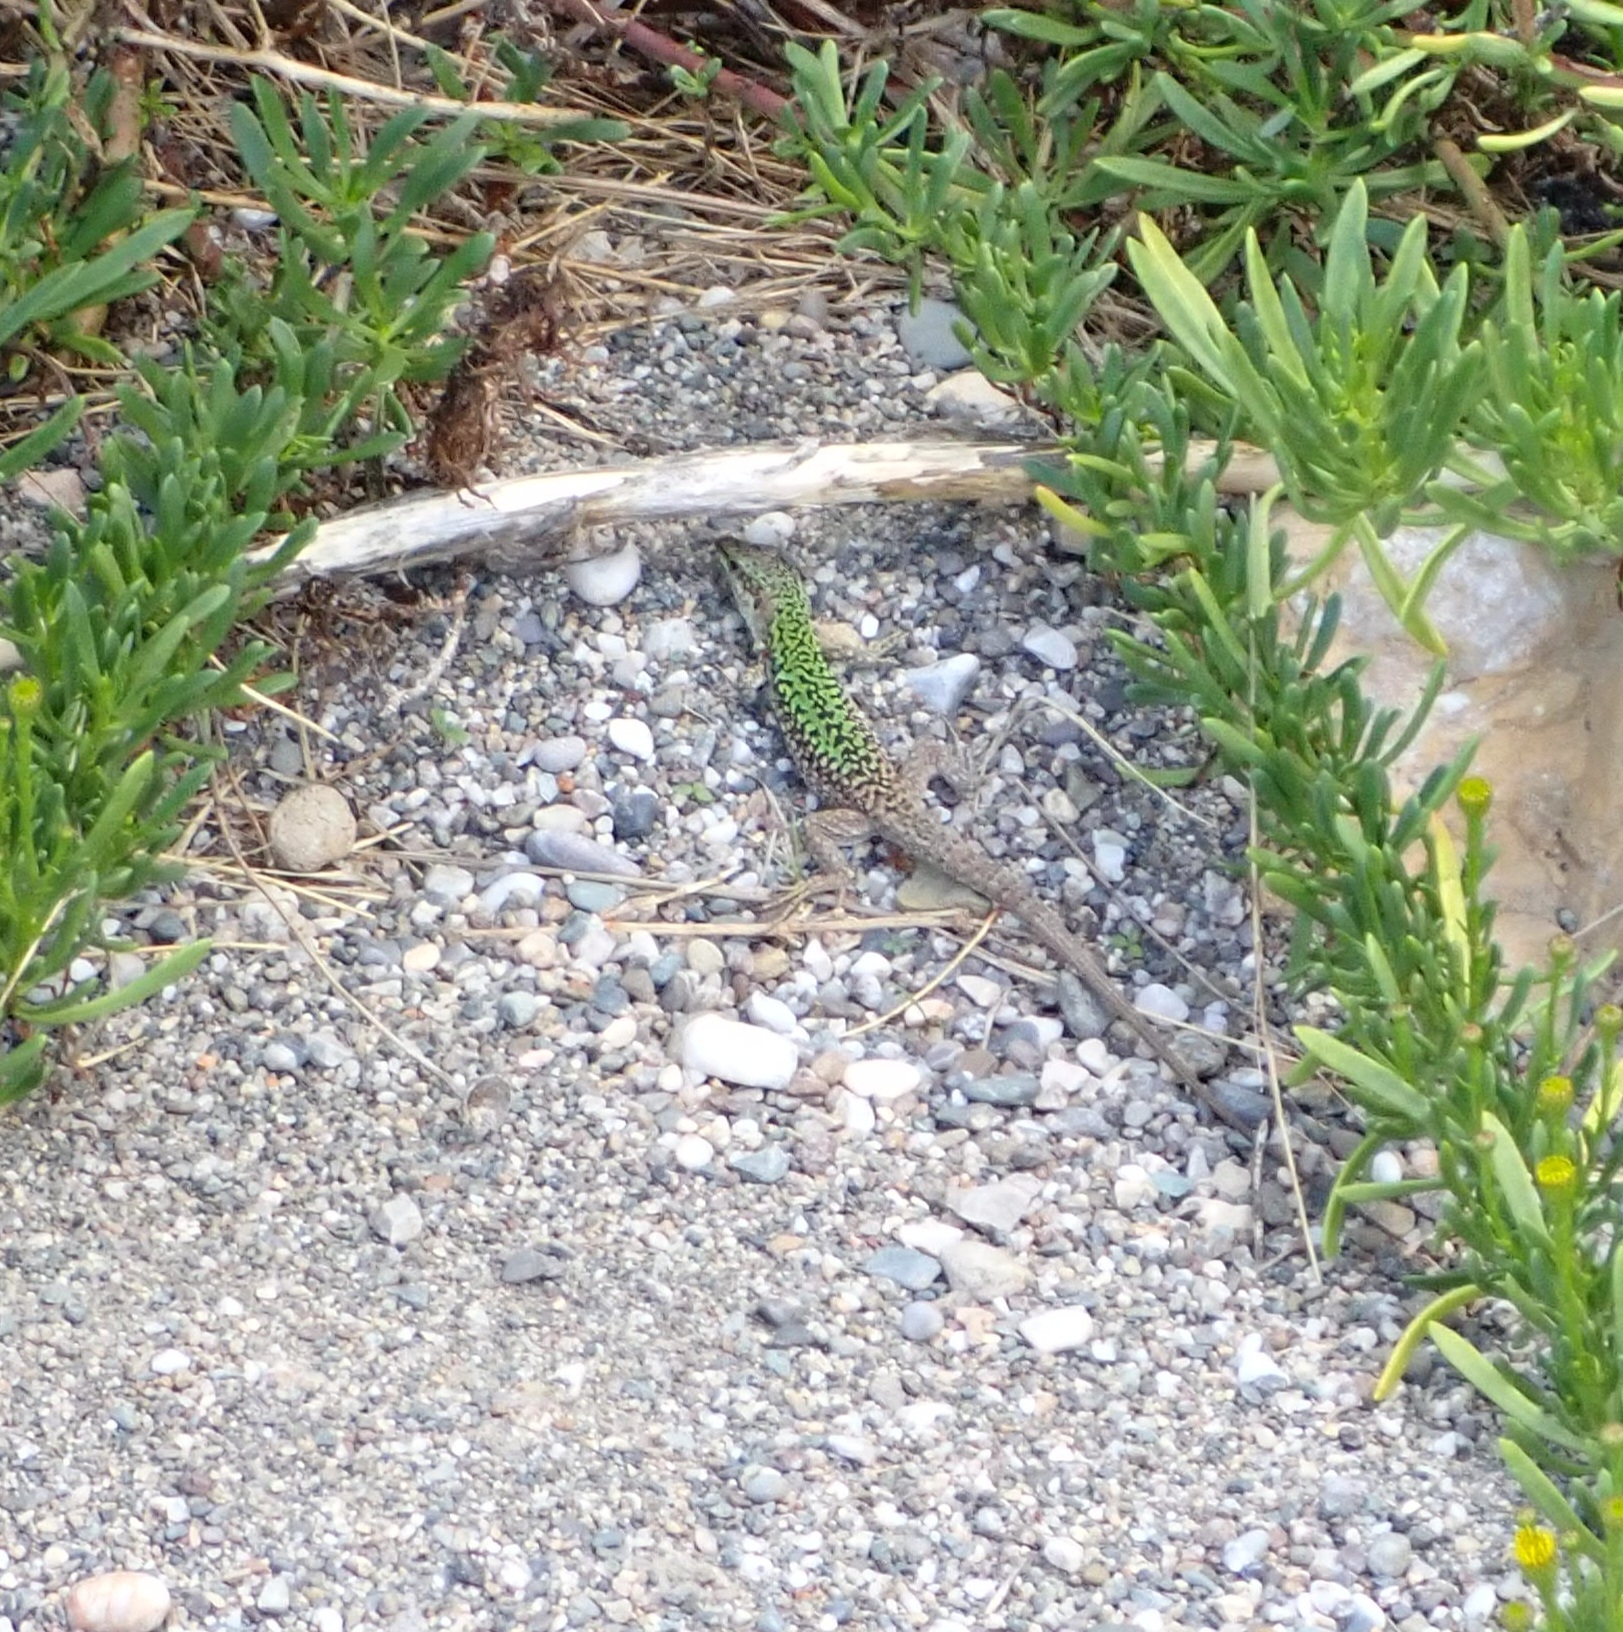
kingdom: Animalia
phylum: Chordata
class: Squamata
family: Lacertidae
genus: Podarcis
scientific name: Podarcis siculus
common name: Italian wall lizard
